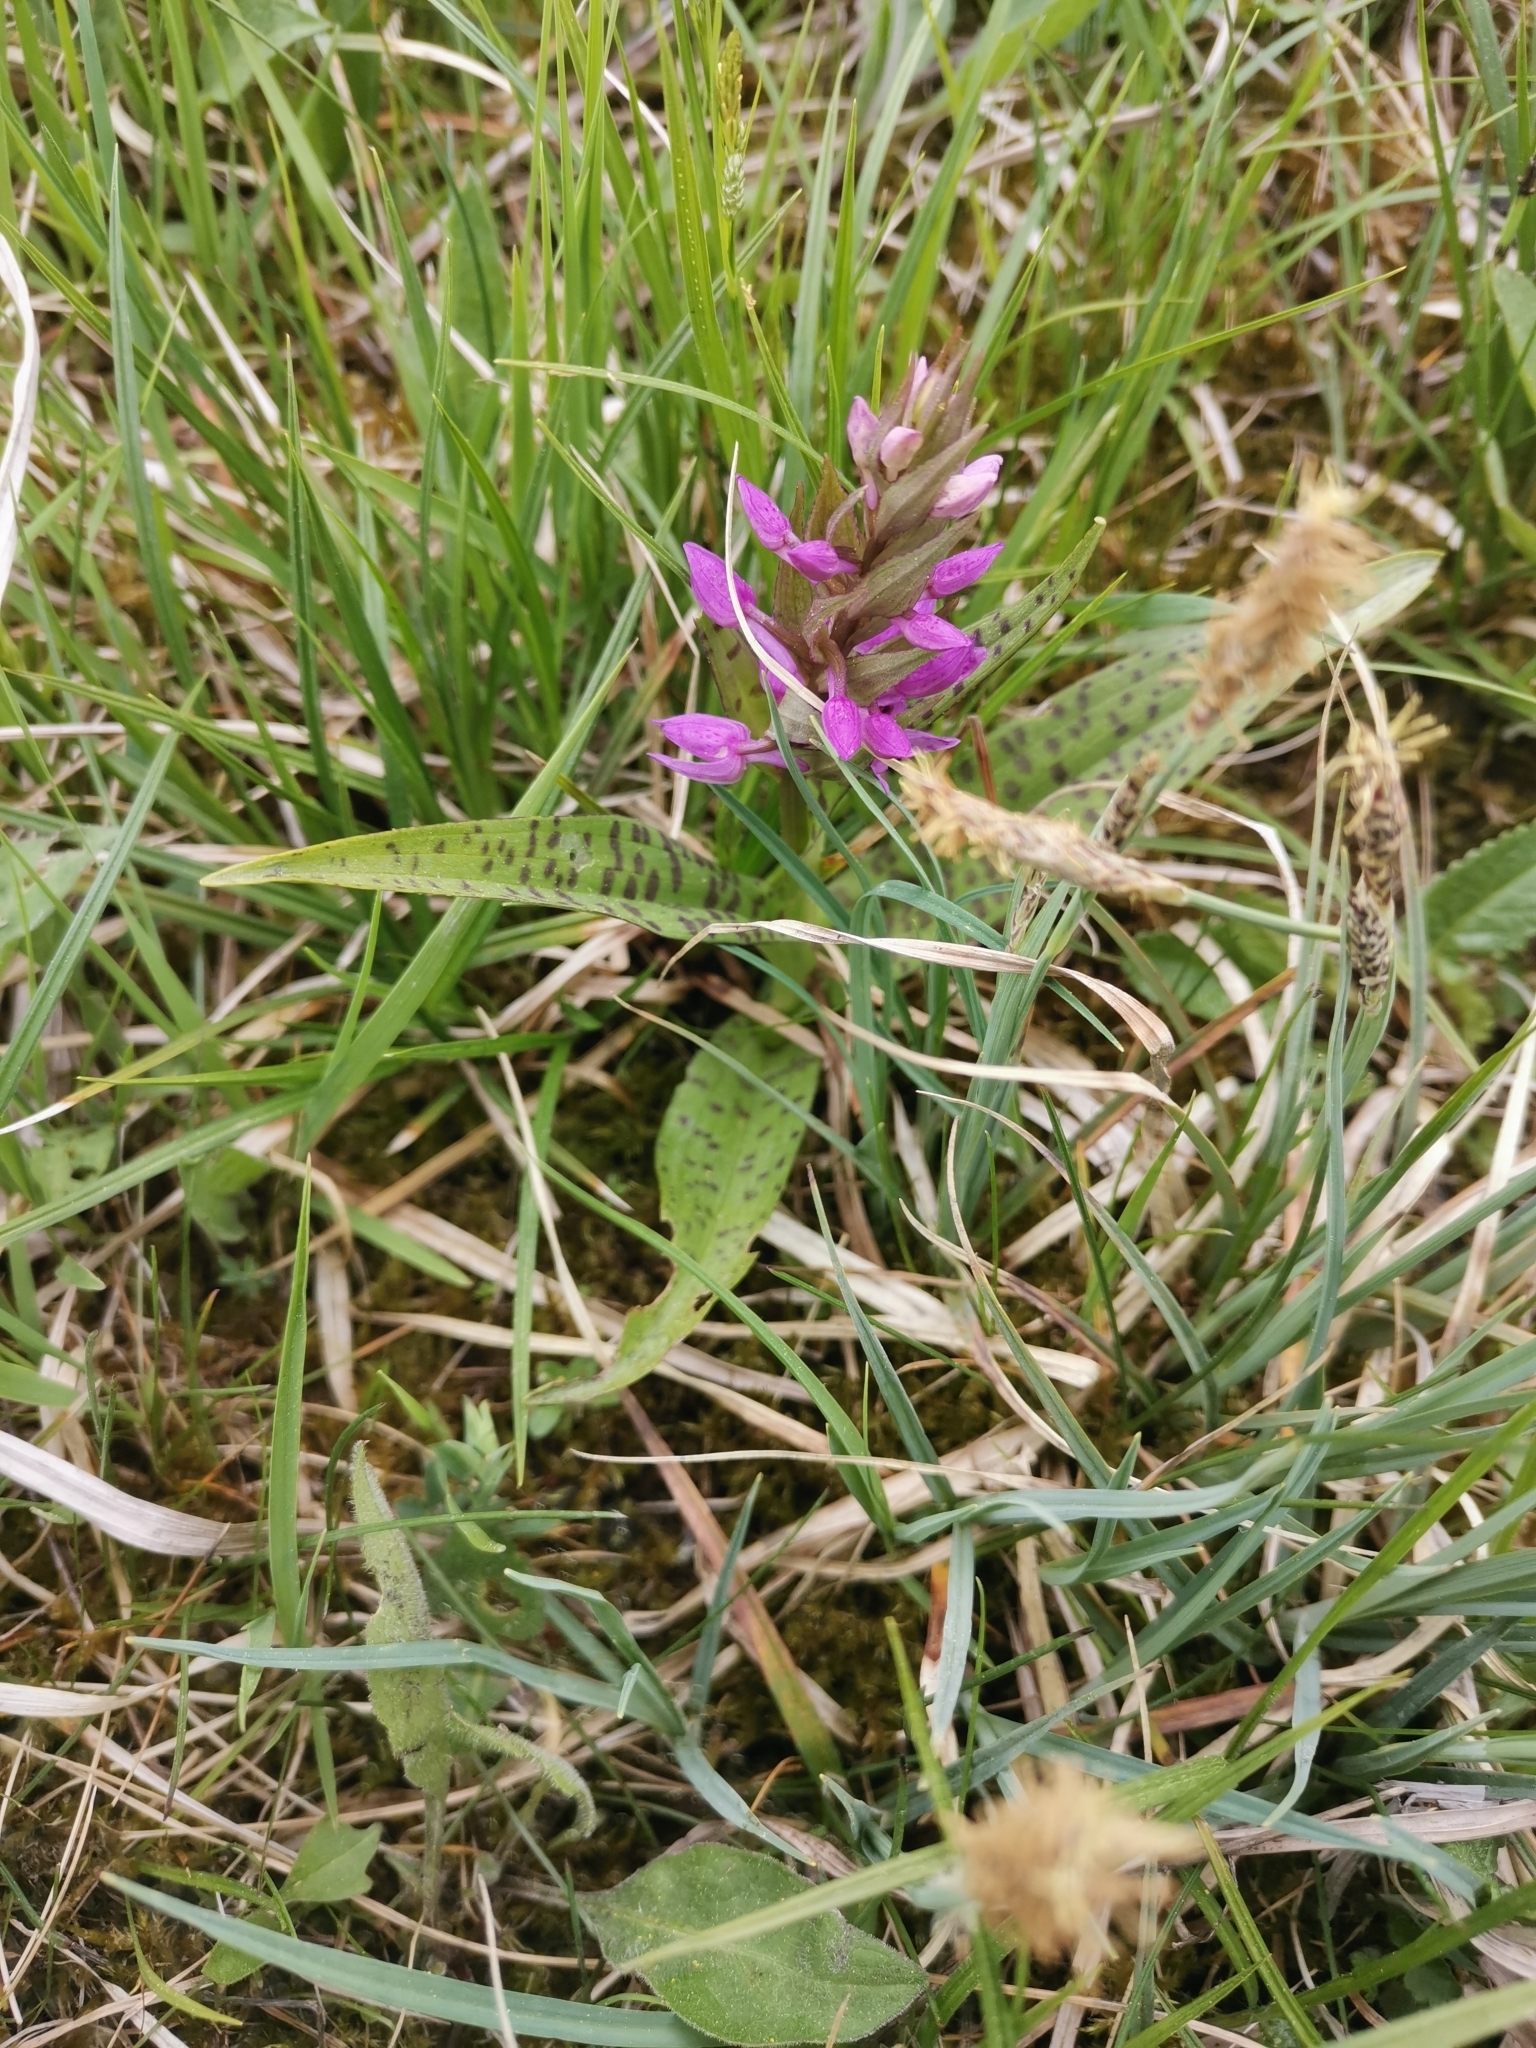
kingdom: Plantae
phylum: Tracheophyta
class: Liliopsida
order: Asparagales
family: Orchidaceae
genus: Dactylorhiza
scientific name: Dactylorhiza majalis
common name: Marsh orchid
